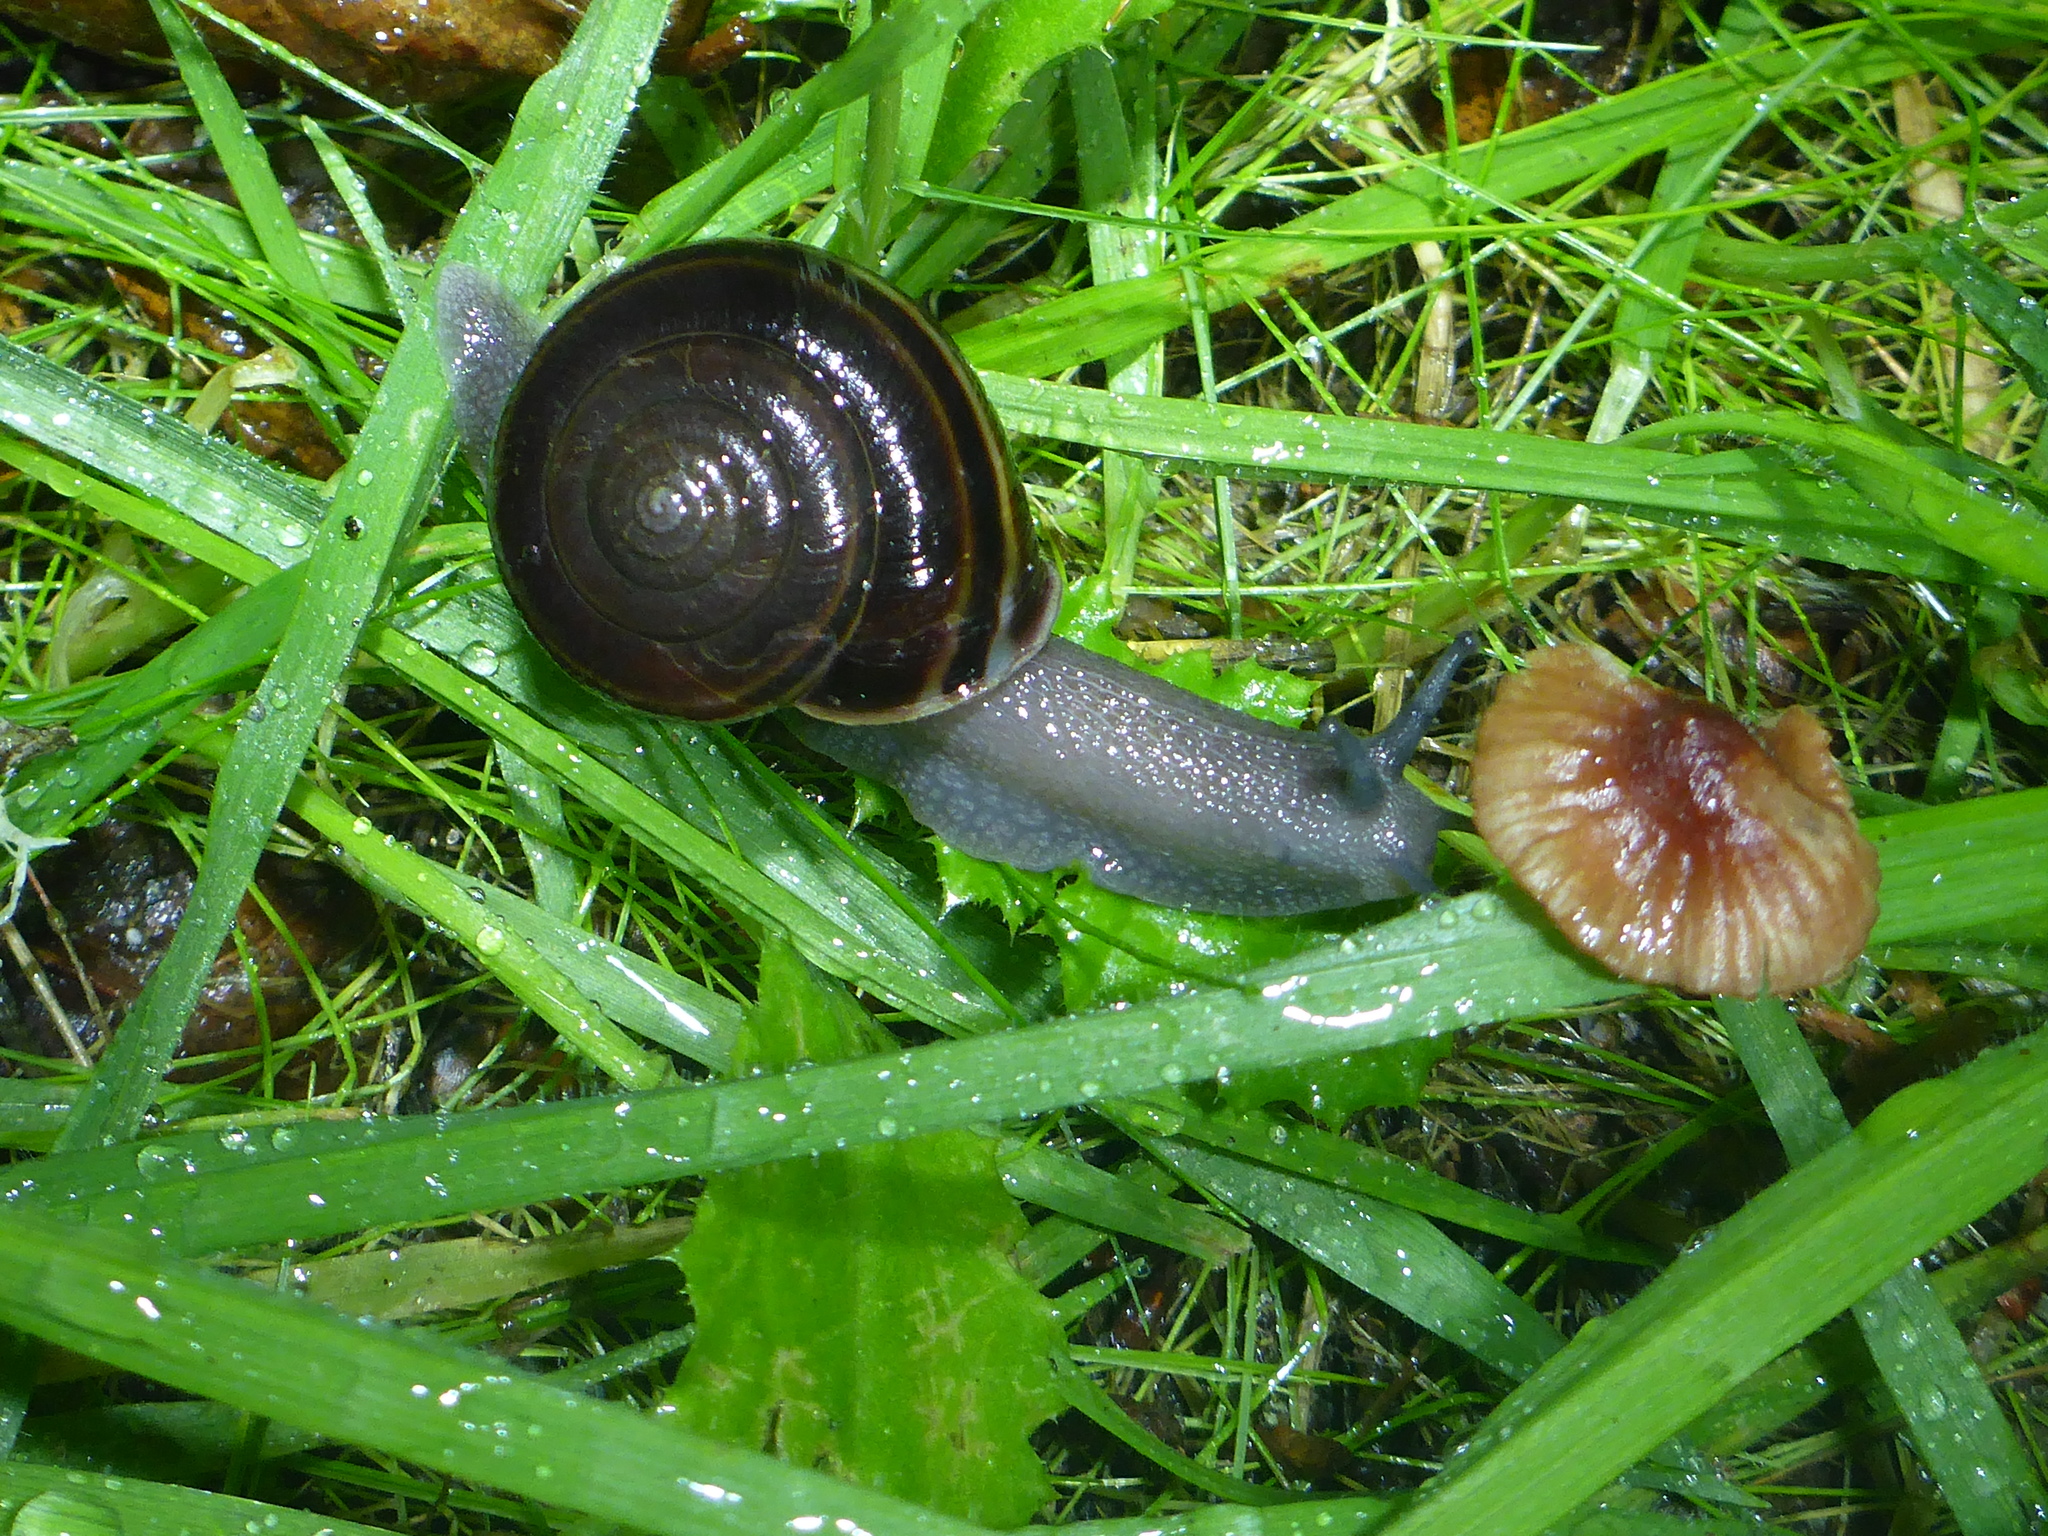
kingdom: Animalia
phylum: Mollusca
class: Gastropoda
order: Stylommatophora
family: Xanthonychidae
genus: Helminthoglypta
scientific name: Helminthoglypta sequoicola
